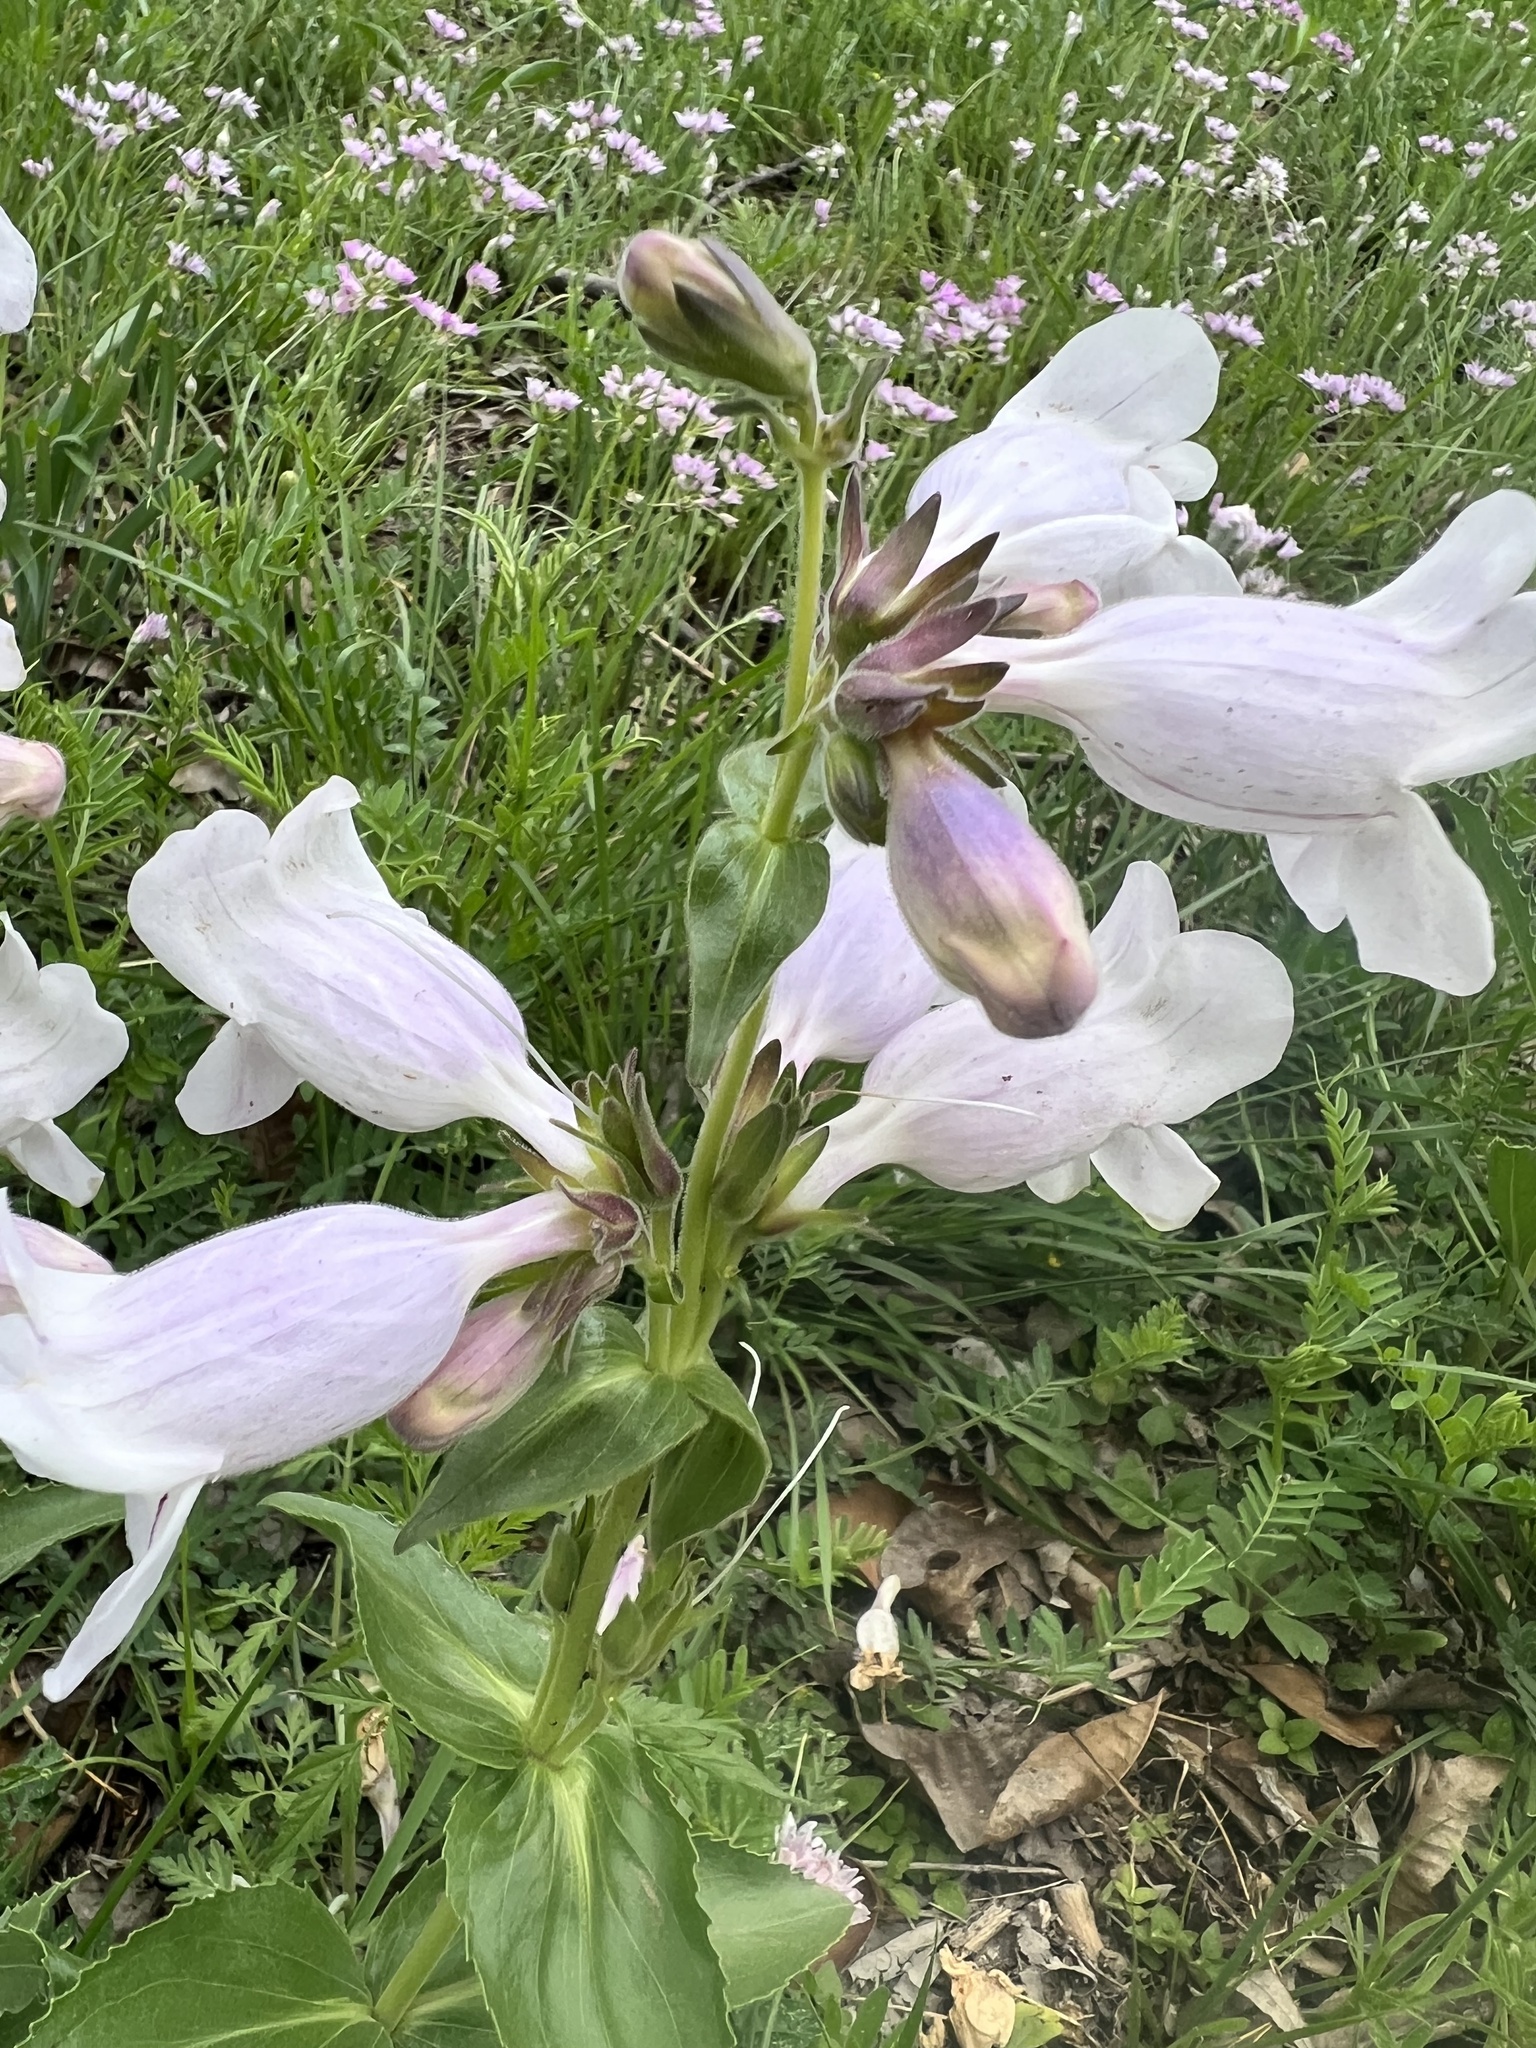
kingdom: Plantae
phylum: Tracheophyta
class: Magnoliopsida
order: Lamiales
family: Plantaginaceae
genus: Penstemon
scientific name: Penstemon cobaea
